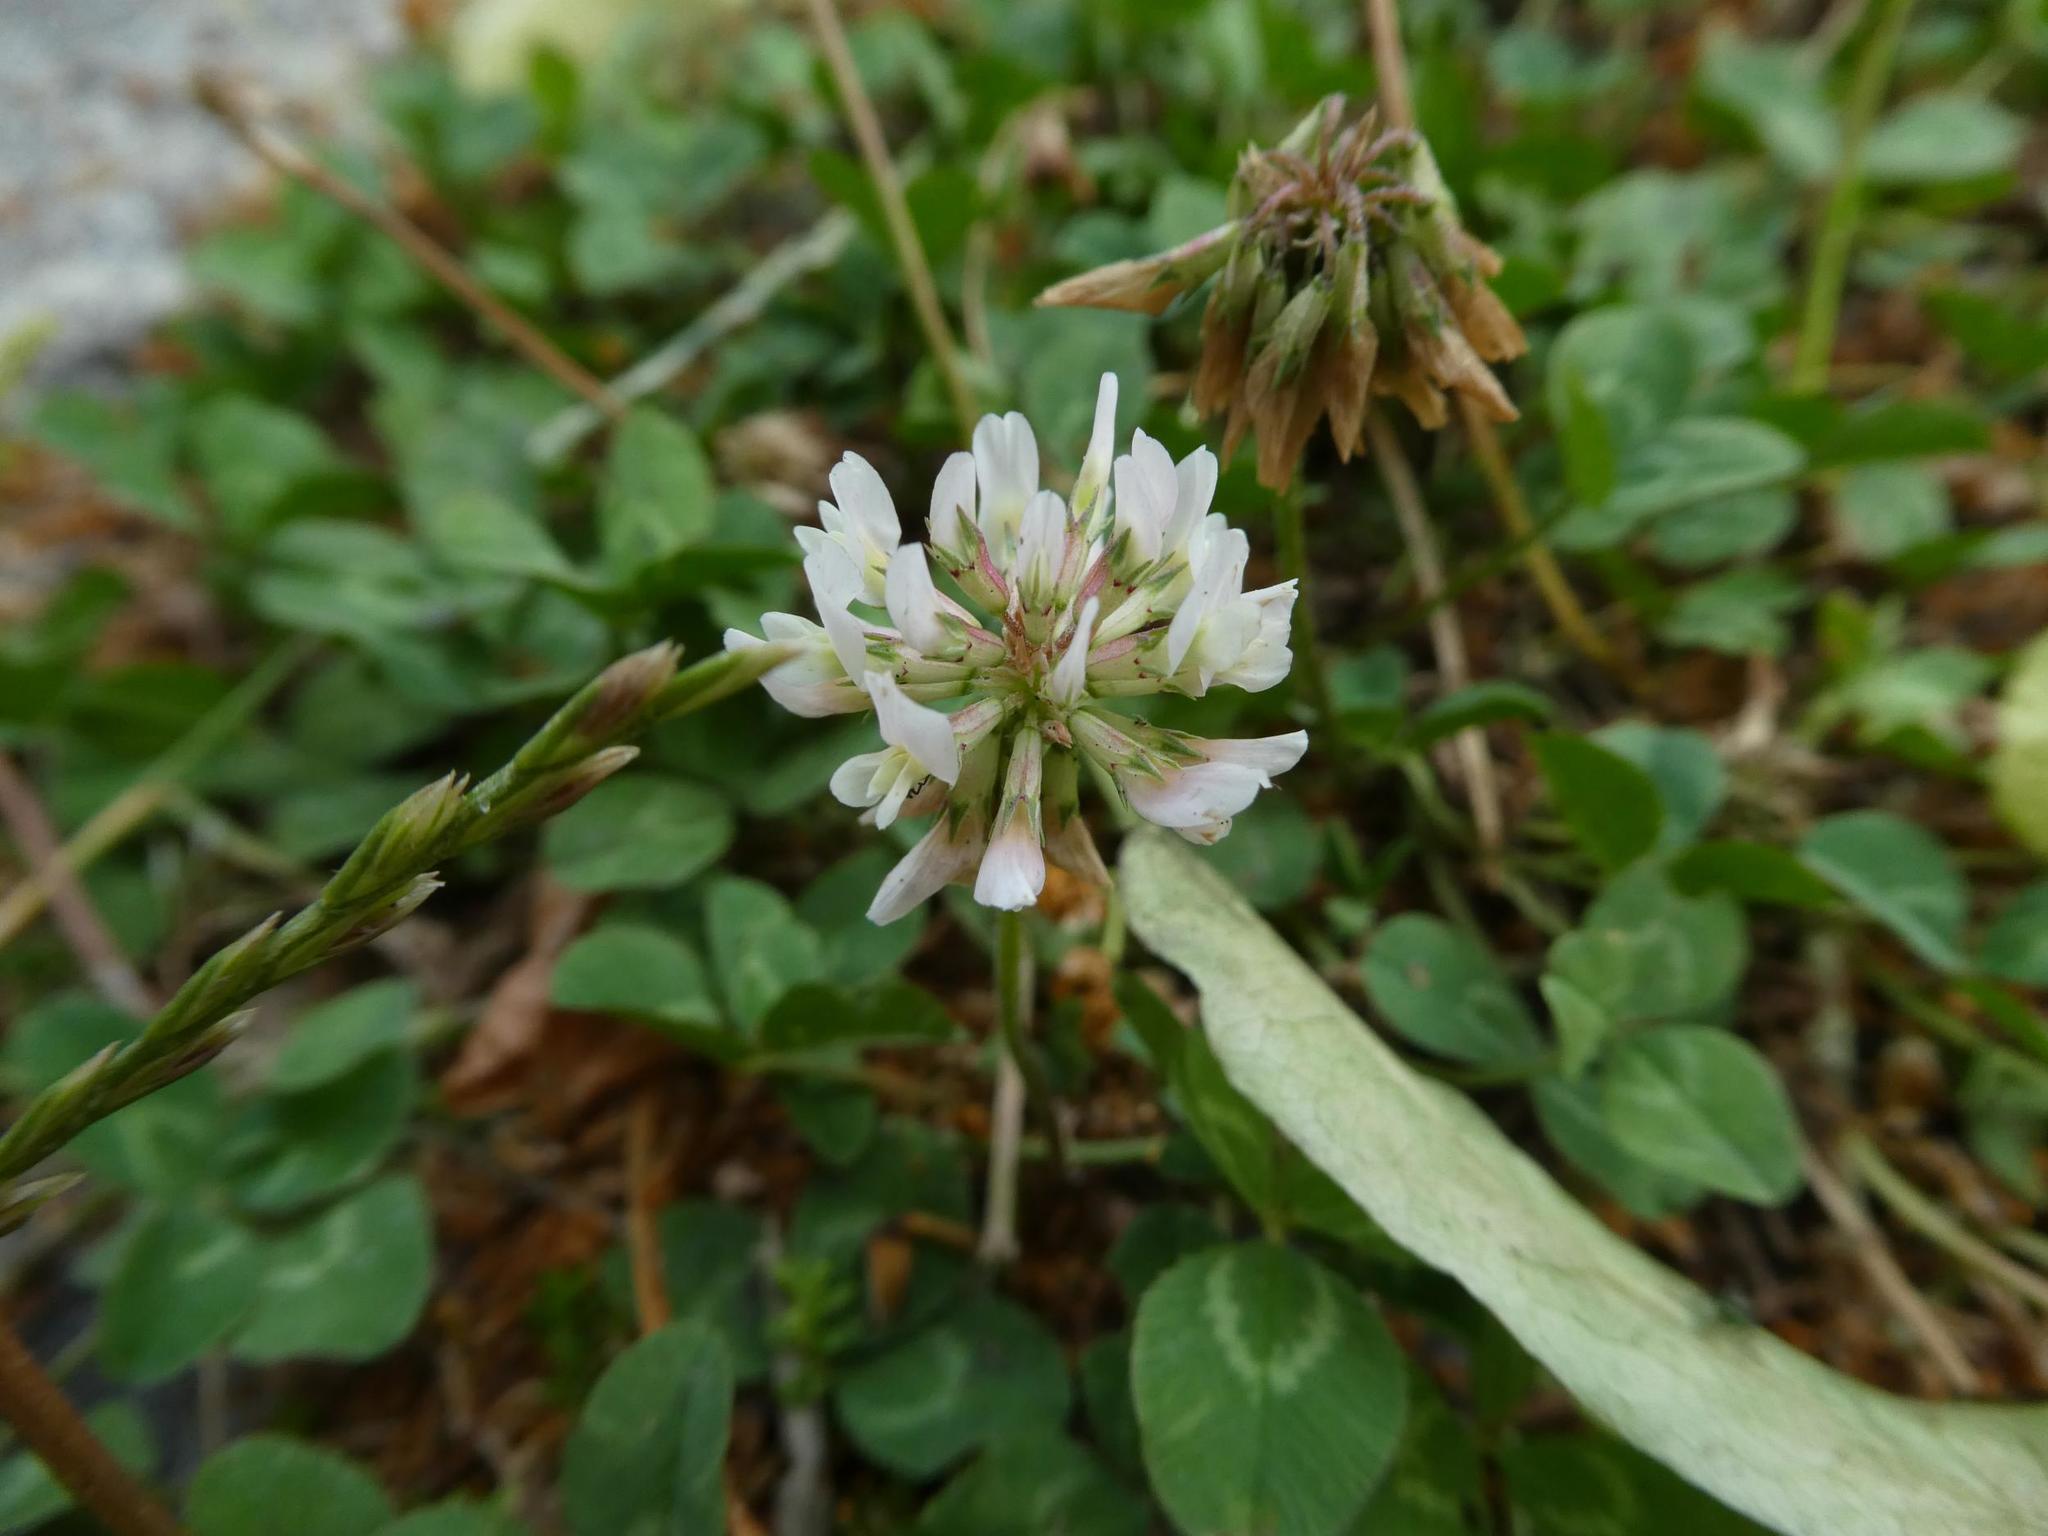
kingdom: Plantae
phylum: Tracheophyta
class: Magnoliopsida
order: Fabales
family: Fabaceae
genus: Trifolium
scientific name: Trifolium repens
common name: White clover
